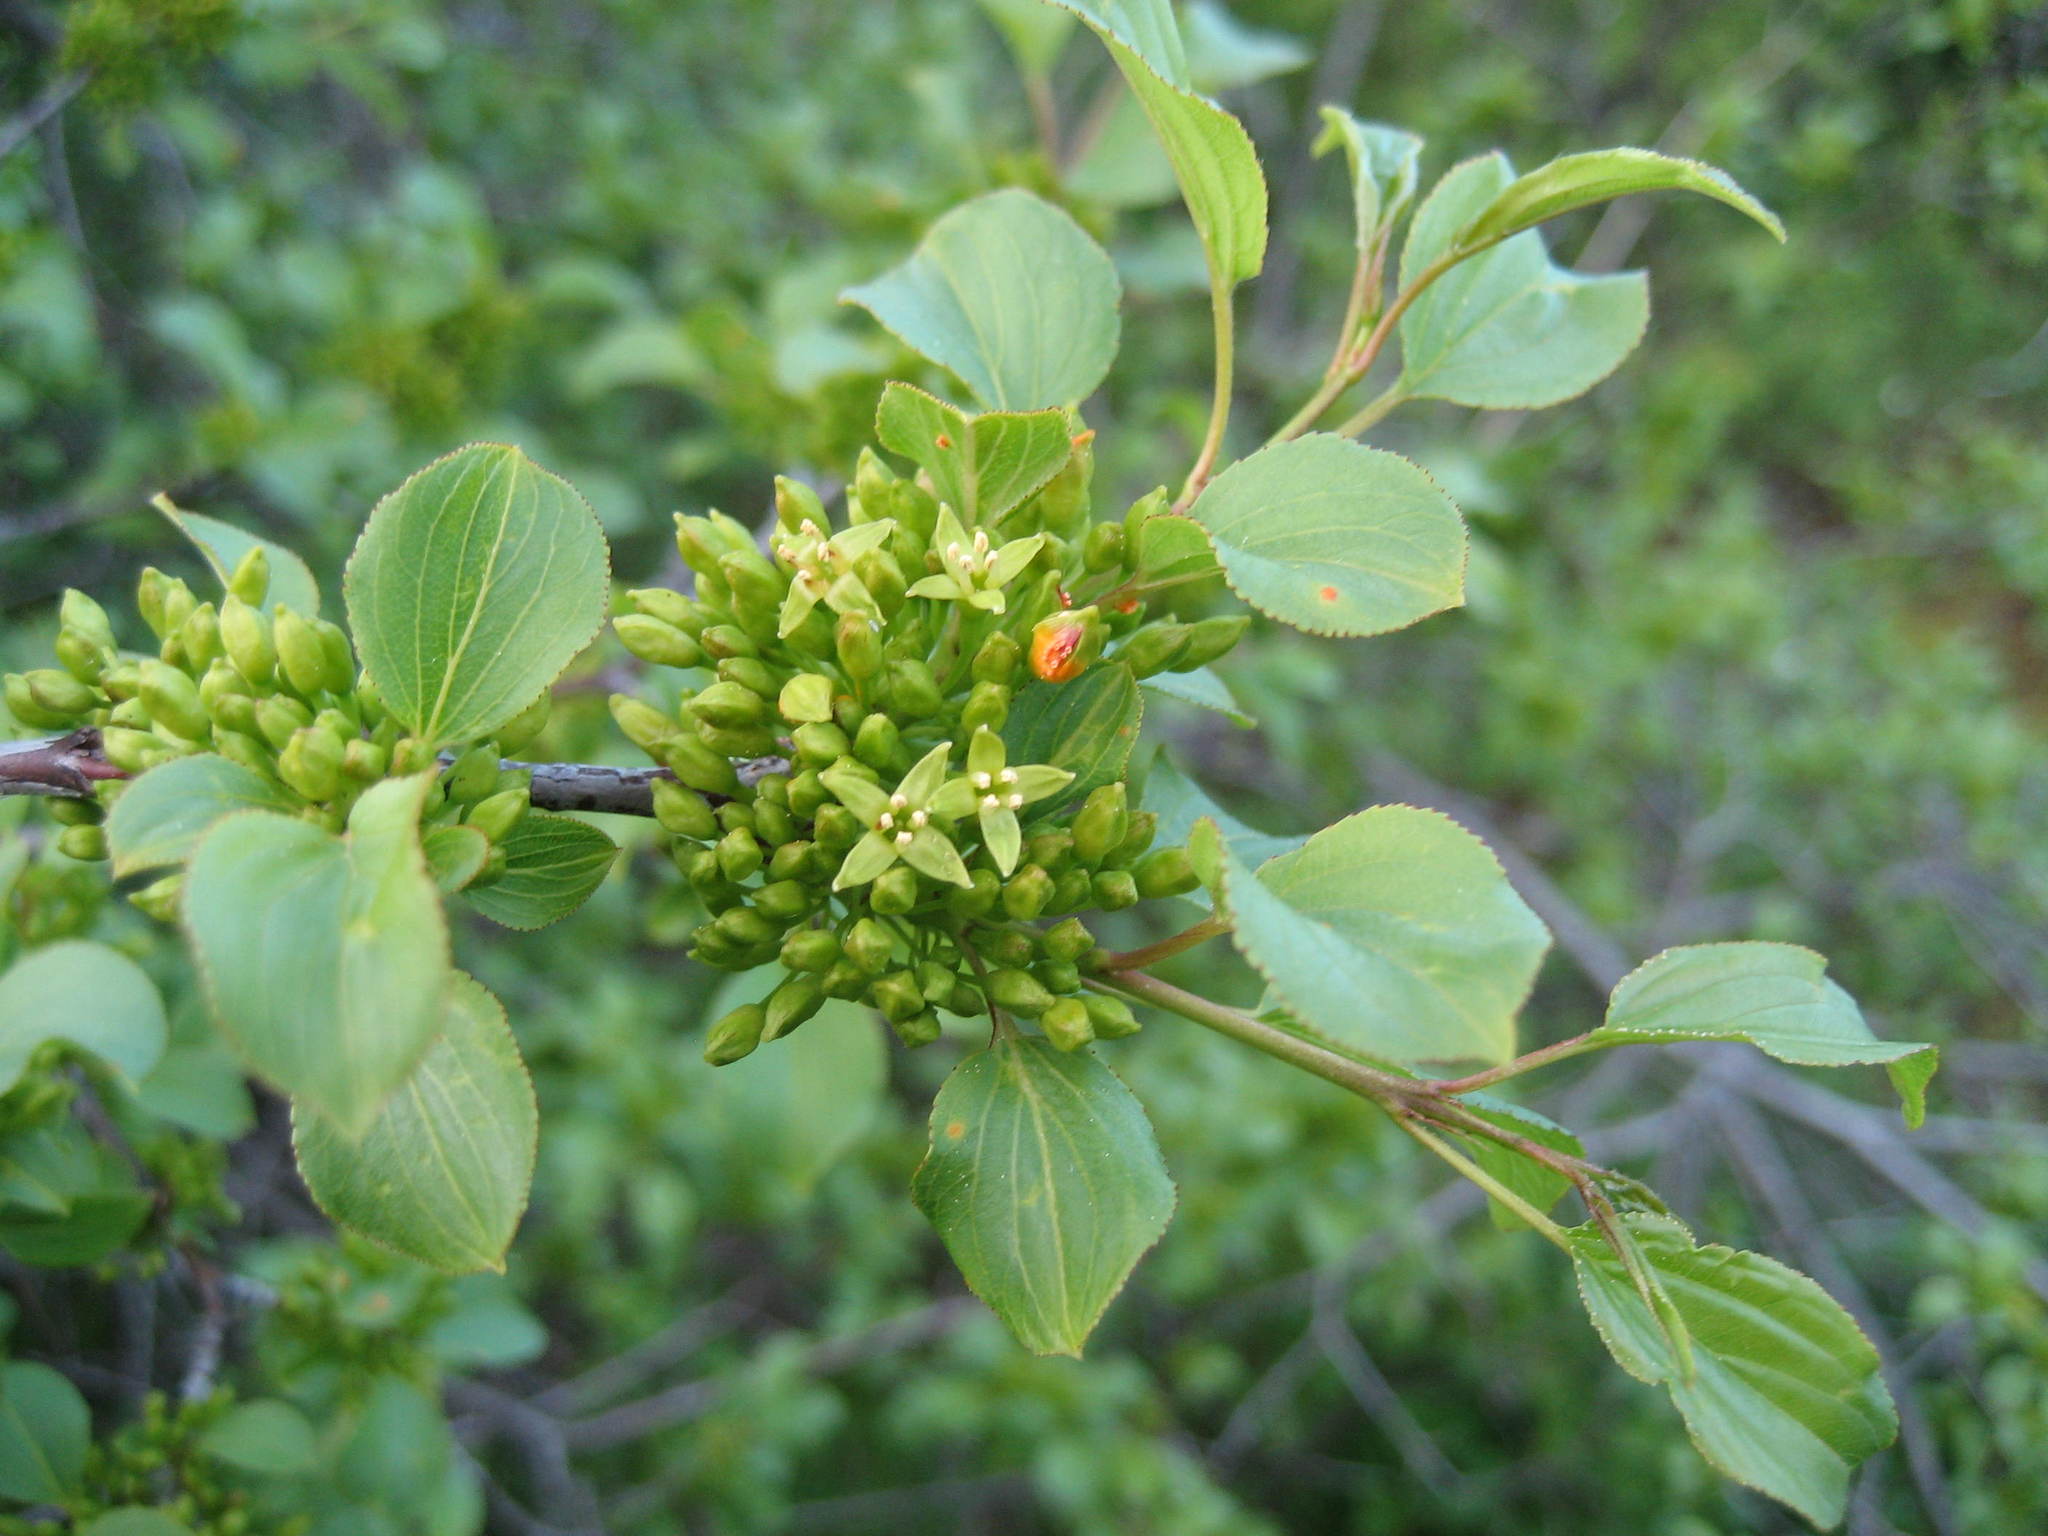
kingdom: Plantae
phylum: Tracheophyta
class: Magnoliopsida
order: Rosales
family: Rhamnaceae
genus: Rhamnus
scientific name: Rhamnus cathartica
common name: Common buckthorn
